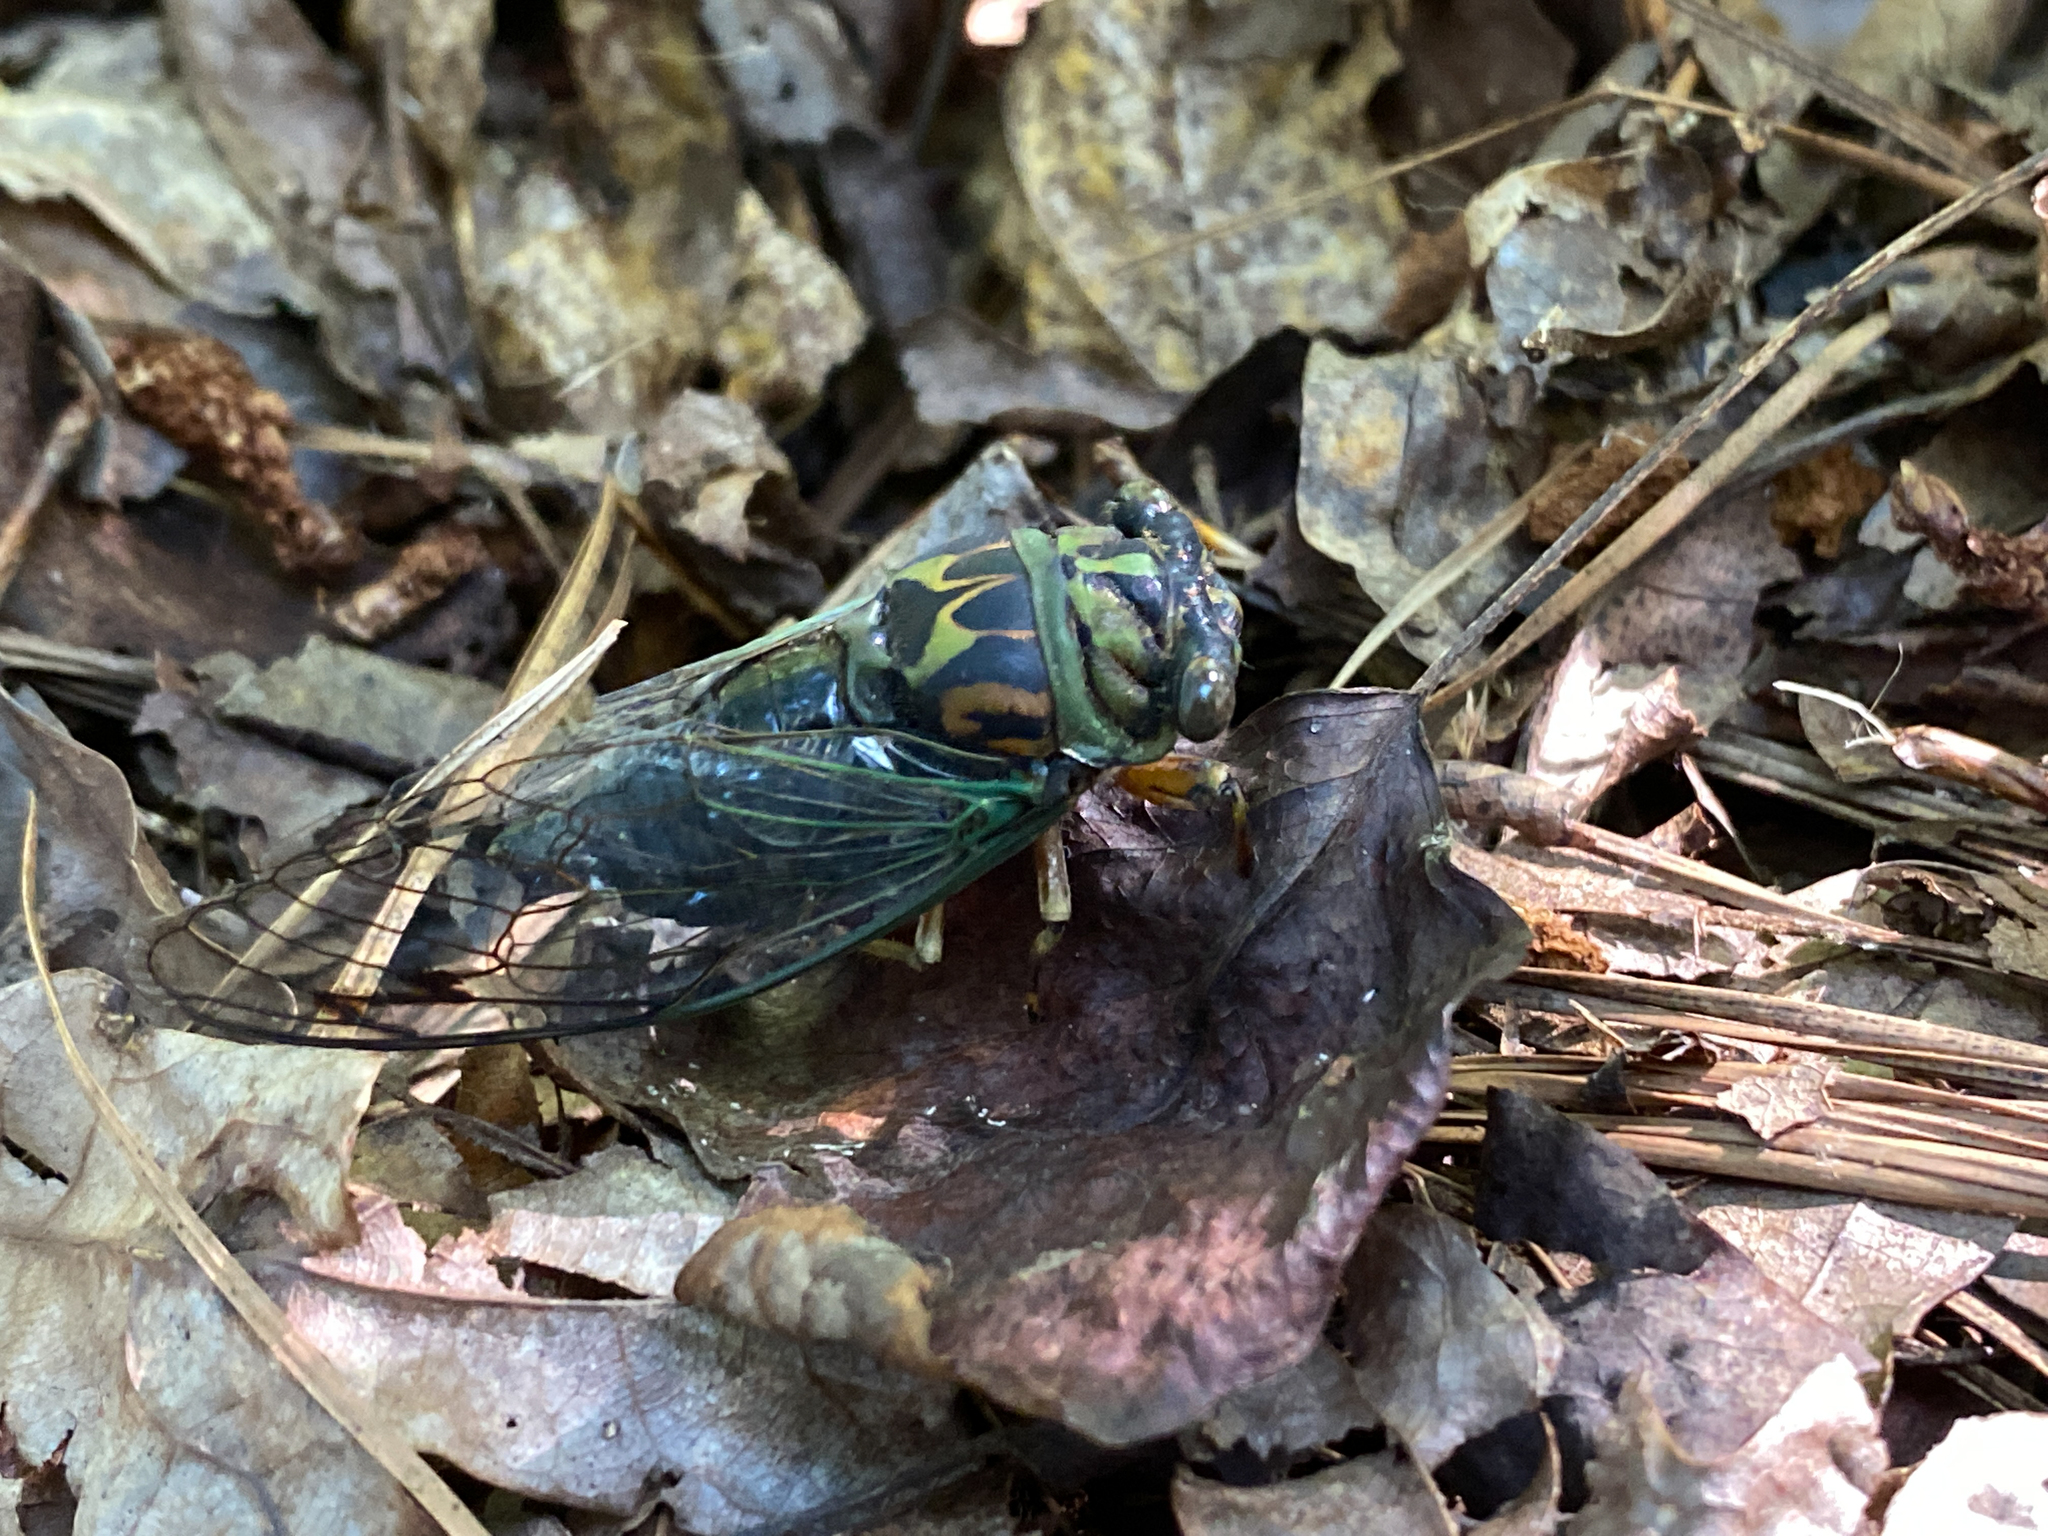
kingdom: Animalia
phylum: Arthropoda
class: Insecta
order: Hemiptera
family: Cicadidae
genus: Neotibicen
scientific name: Neotibicen linnei
